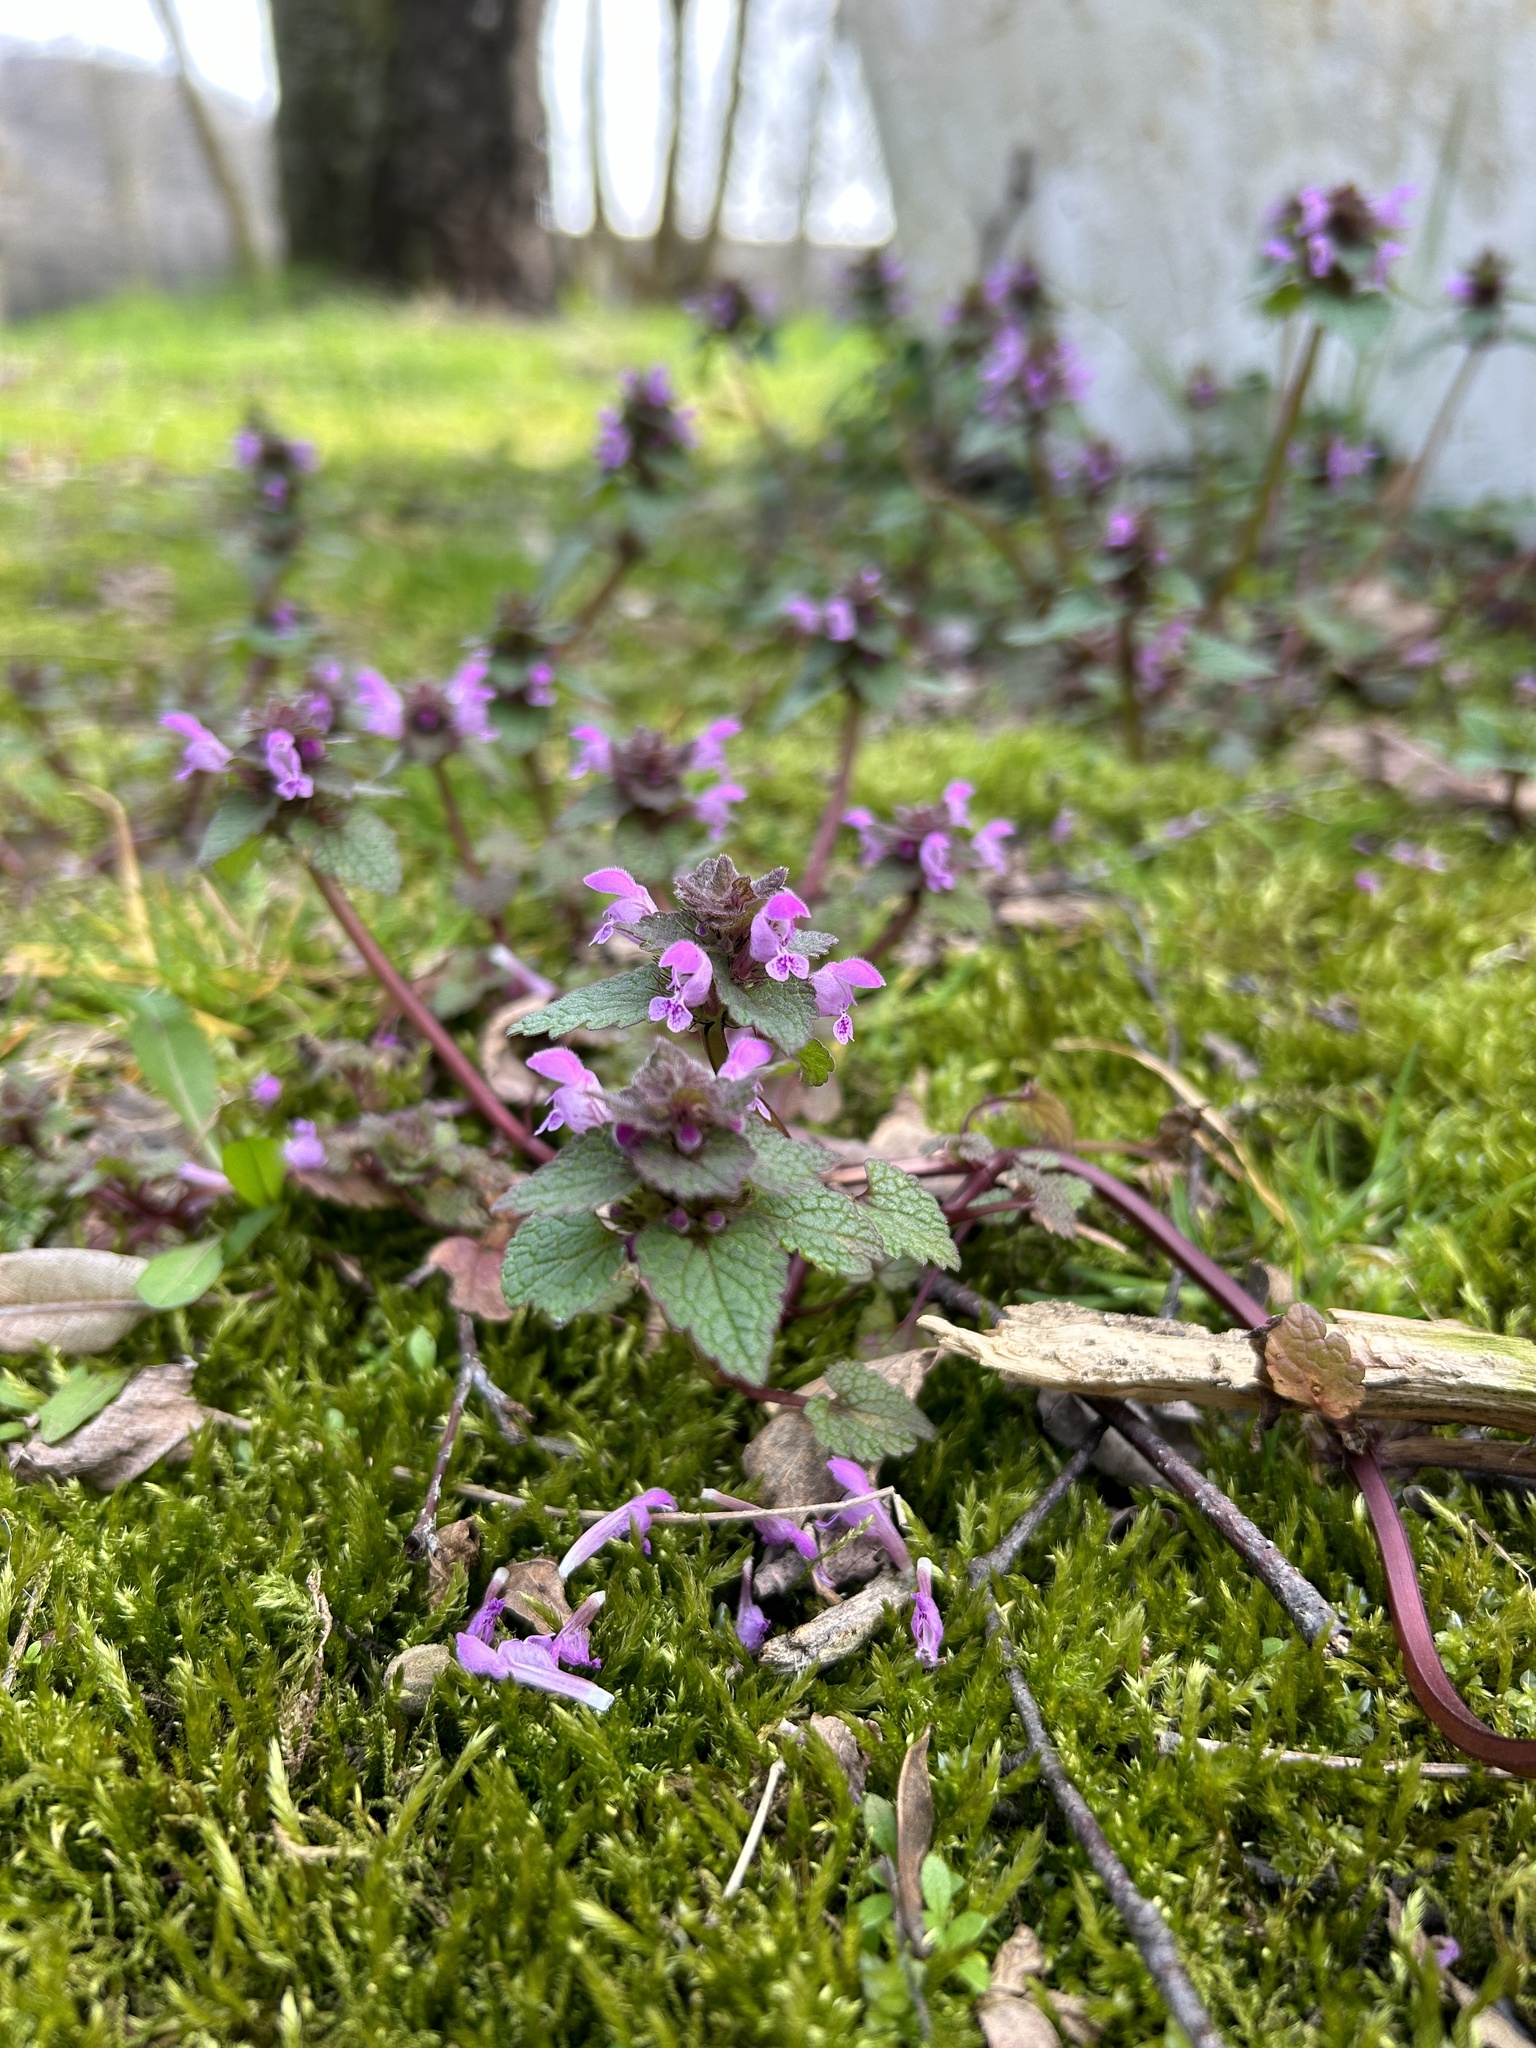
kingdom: Plantae
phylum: Tracheophyta
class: Magnoliopsida
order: Lamiales
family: Lamiaceae
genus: Lamium
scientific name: Lamium purpureum
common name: Red dead-nettle
